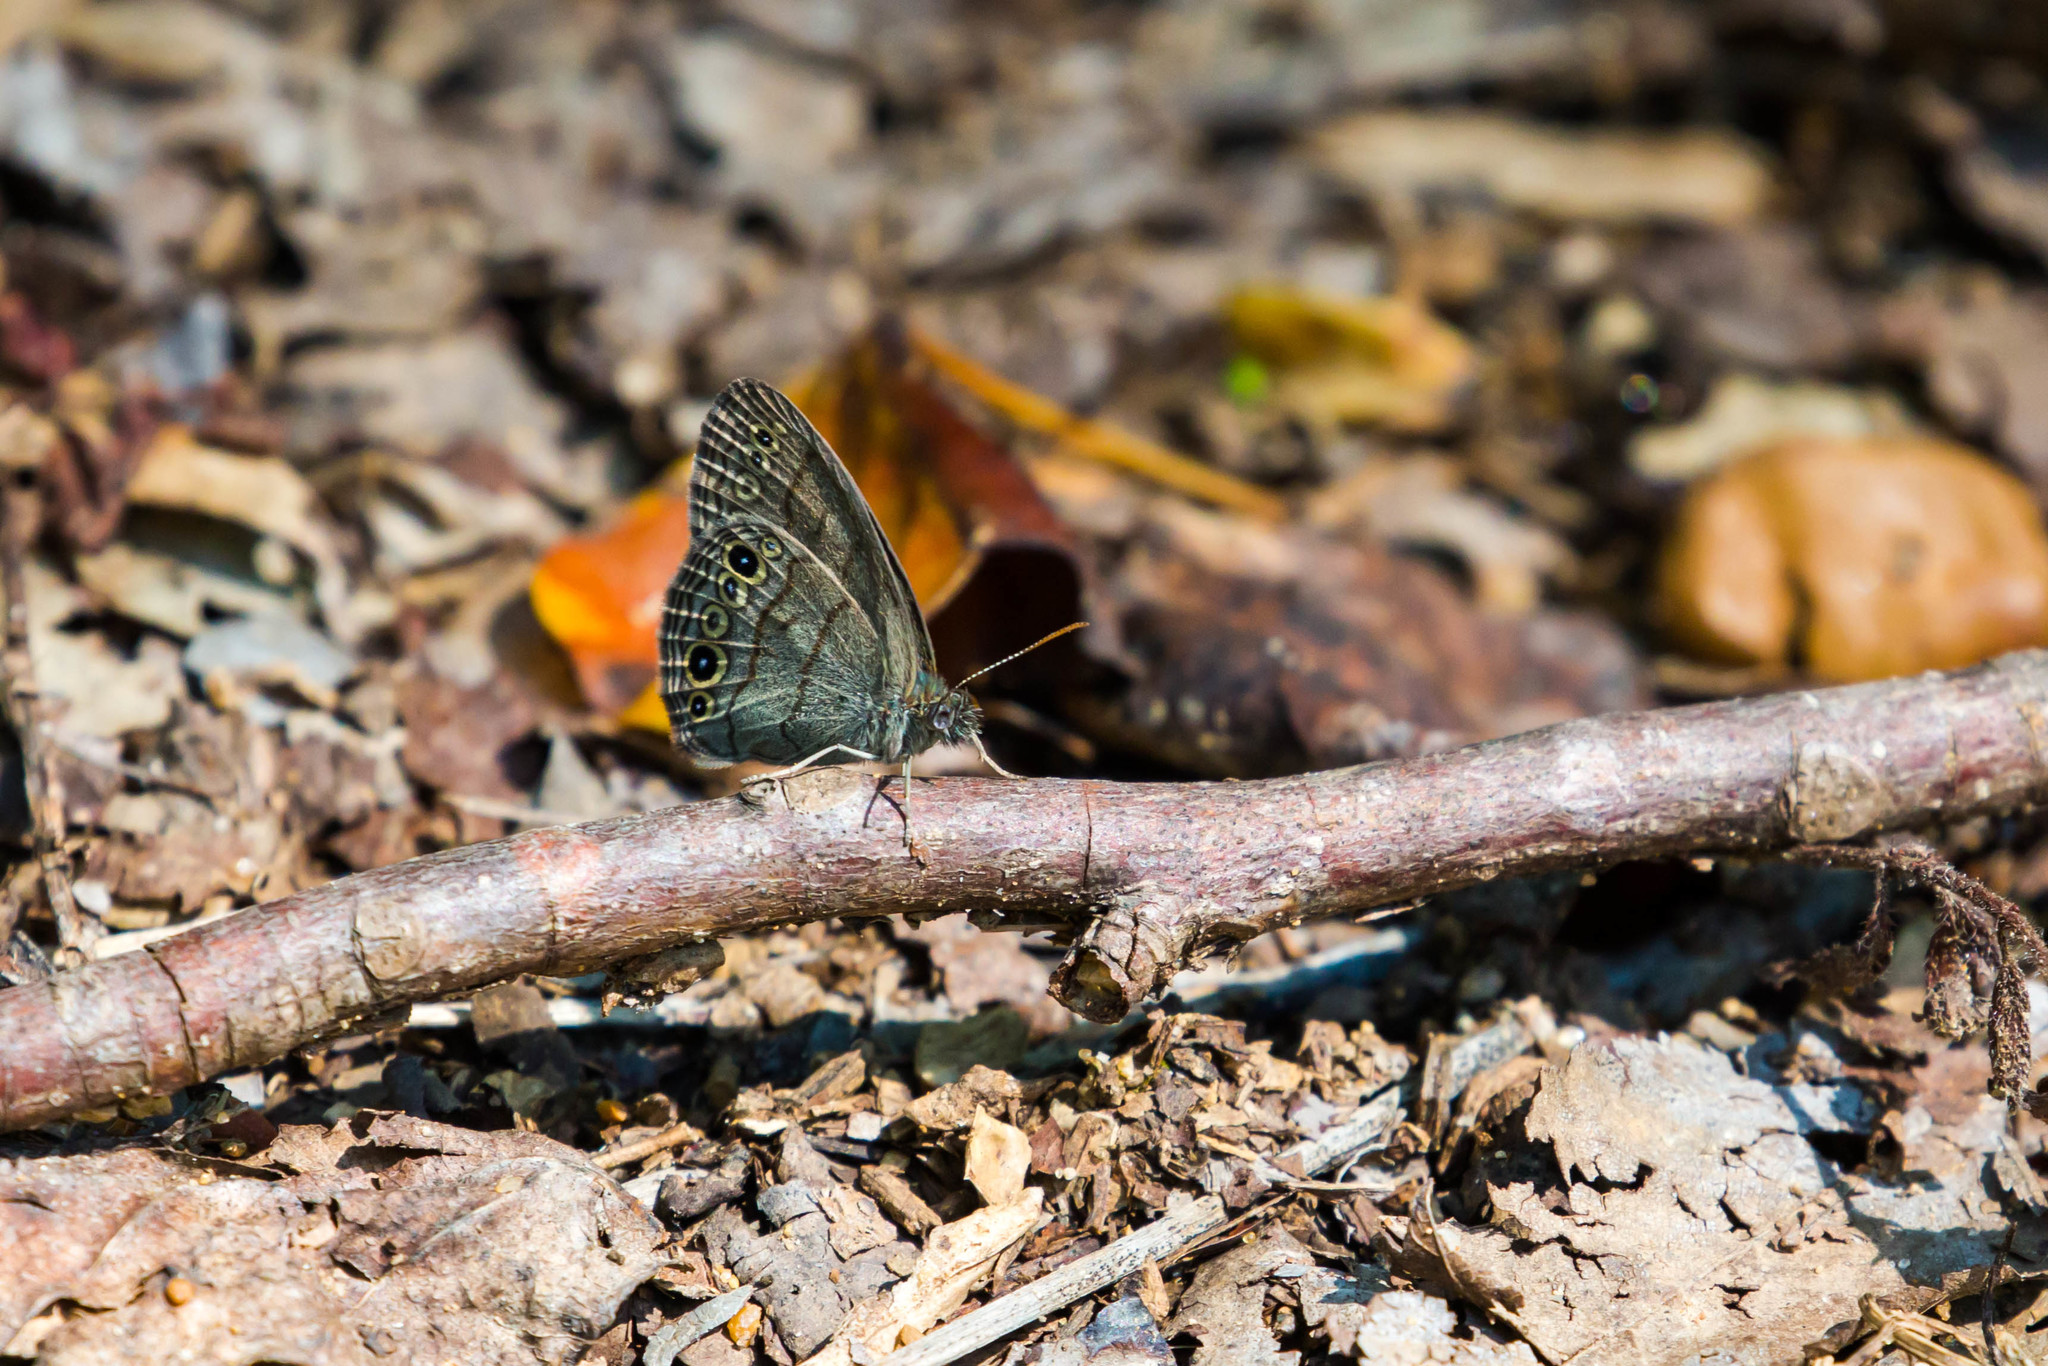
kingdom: Animalia
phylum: Arthropoda
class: Insecta
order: Lepidoptera
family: Nymphalidae
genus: Hermeuptychia
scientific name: Hermeuptychia hermes
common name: Hermes satyr
